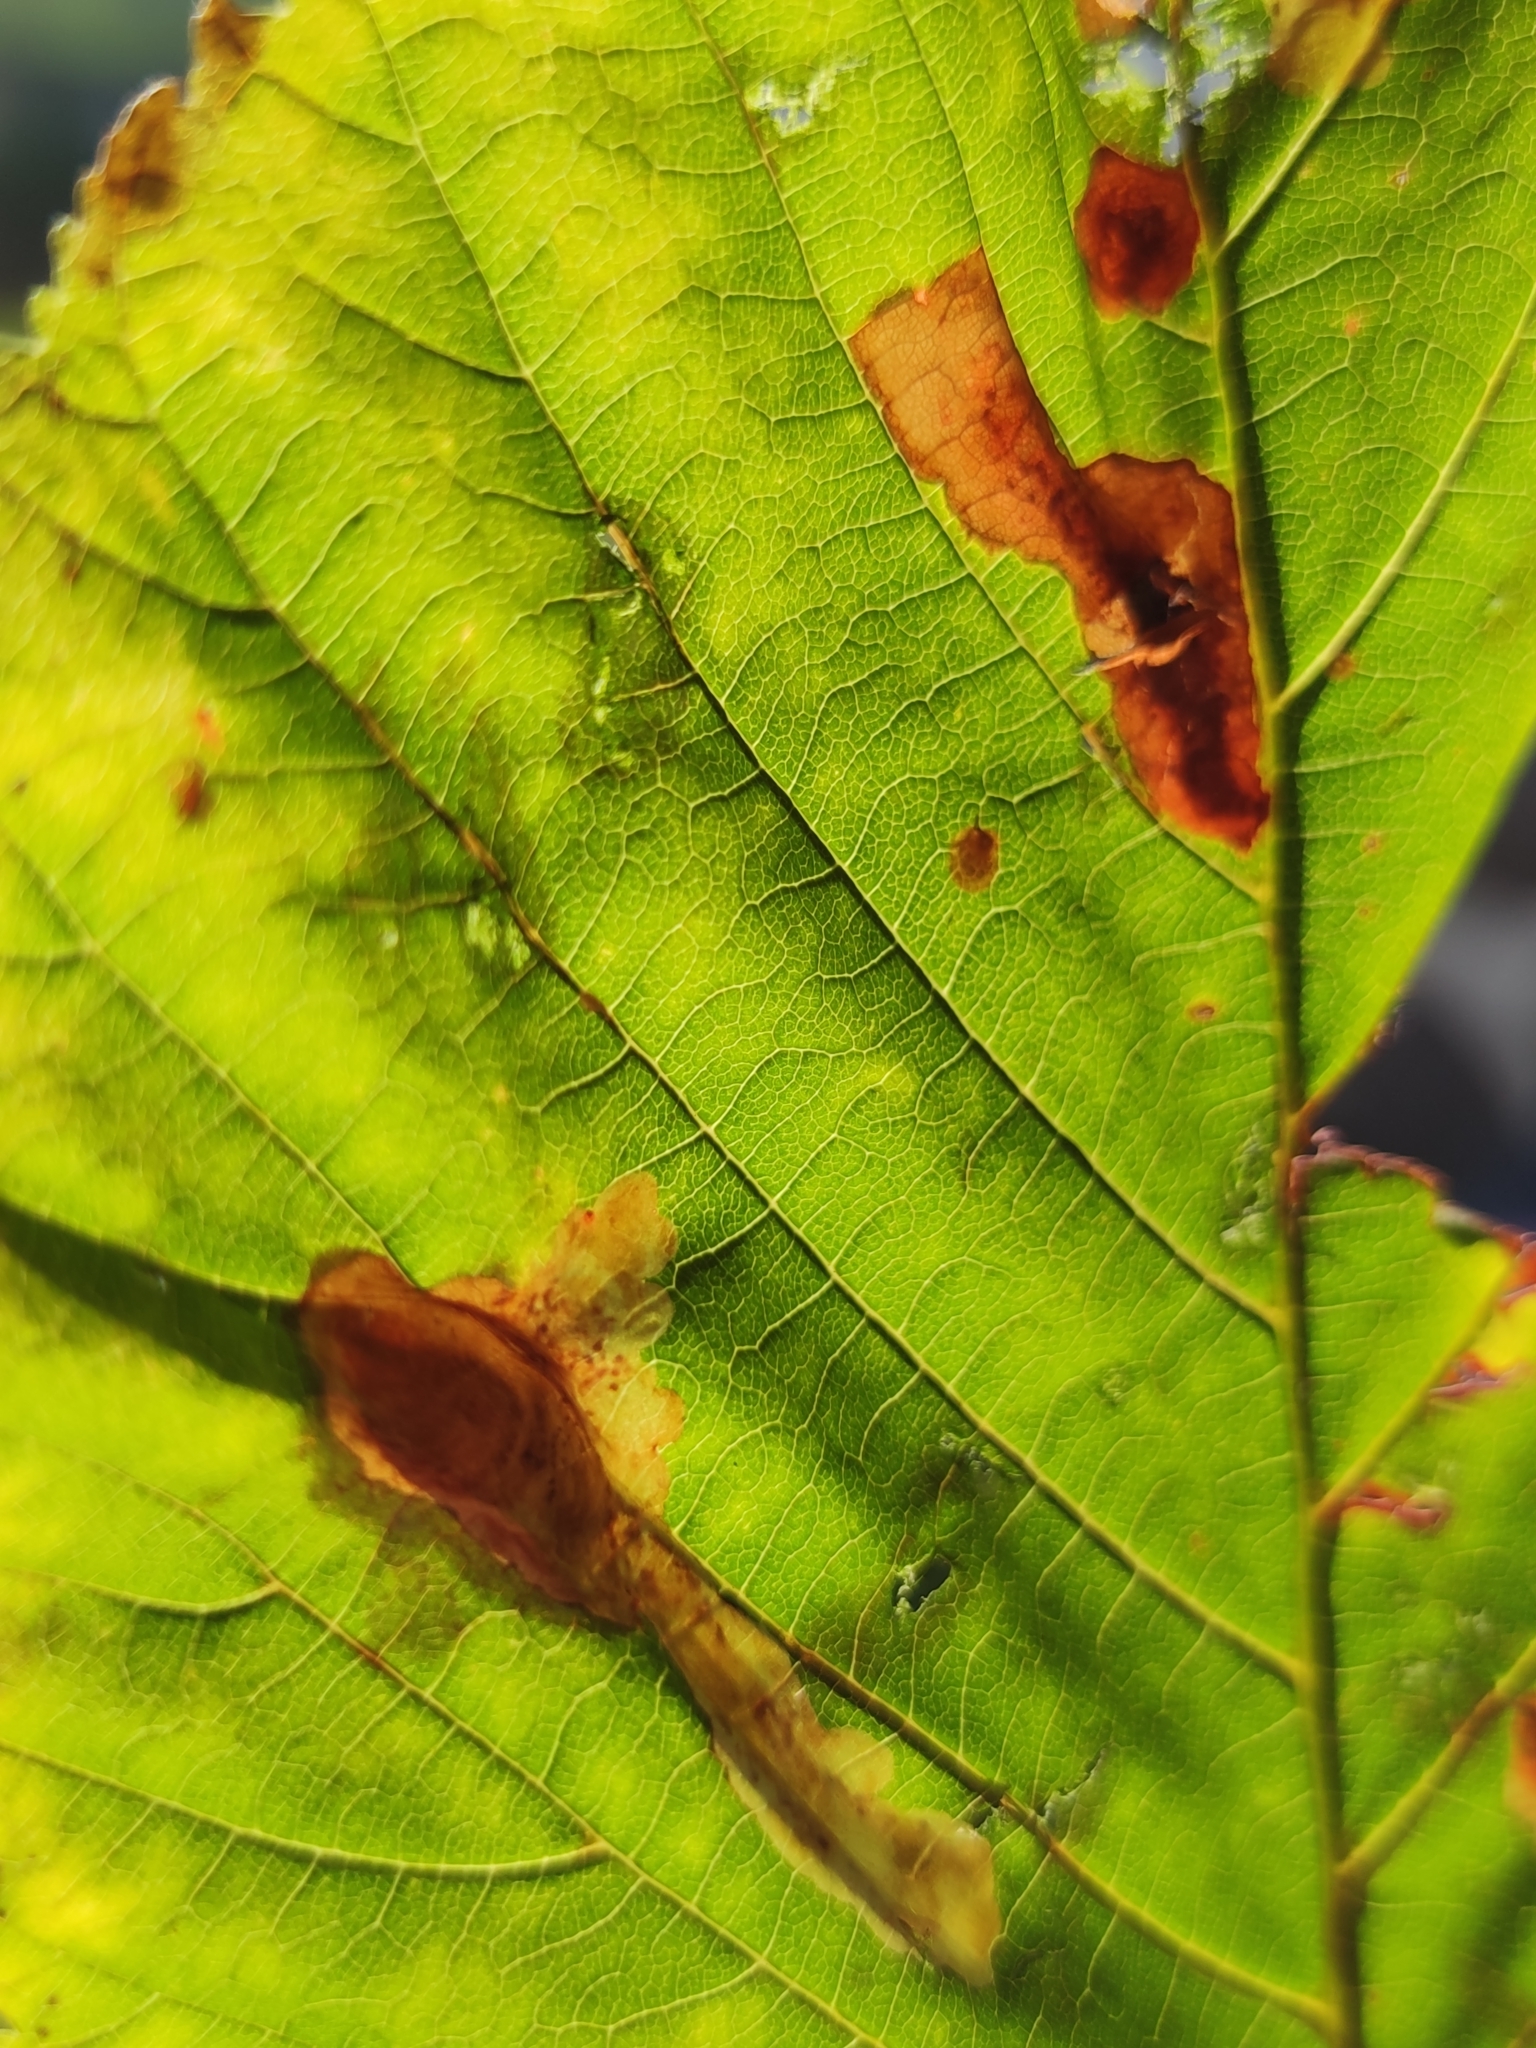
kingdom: Animalia
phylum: Arthropoda
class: Insecta
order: Lepidoptera
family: Gracillariidae
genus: Cameraria
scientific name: Cameraria ohridella
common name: Horse-chestnut leaf-miner
